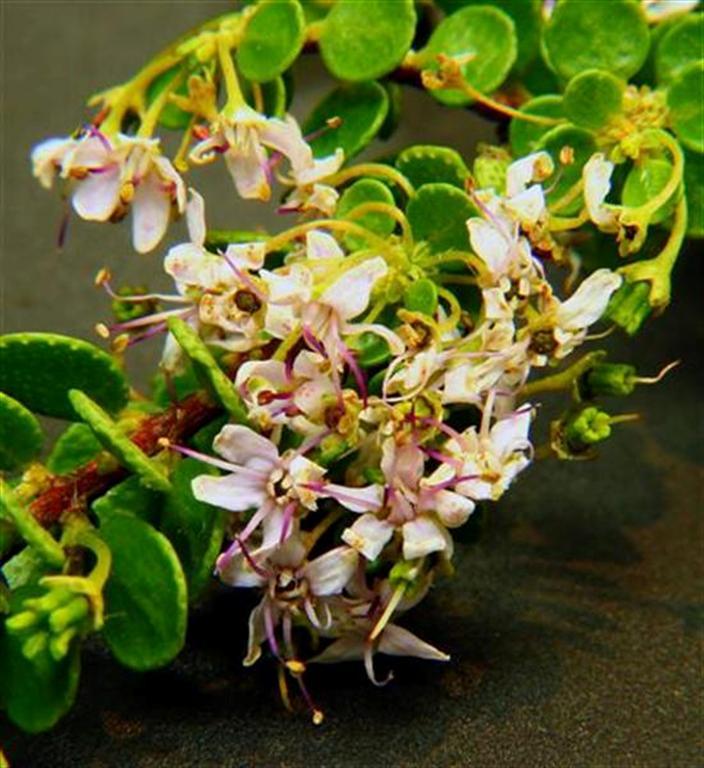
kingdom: Plantae
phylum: Tracheophyta
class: Magnoliopsida
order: Sapindales
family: Rutaceae
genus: Agathosma
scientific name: Agathosma
